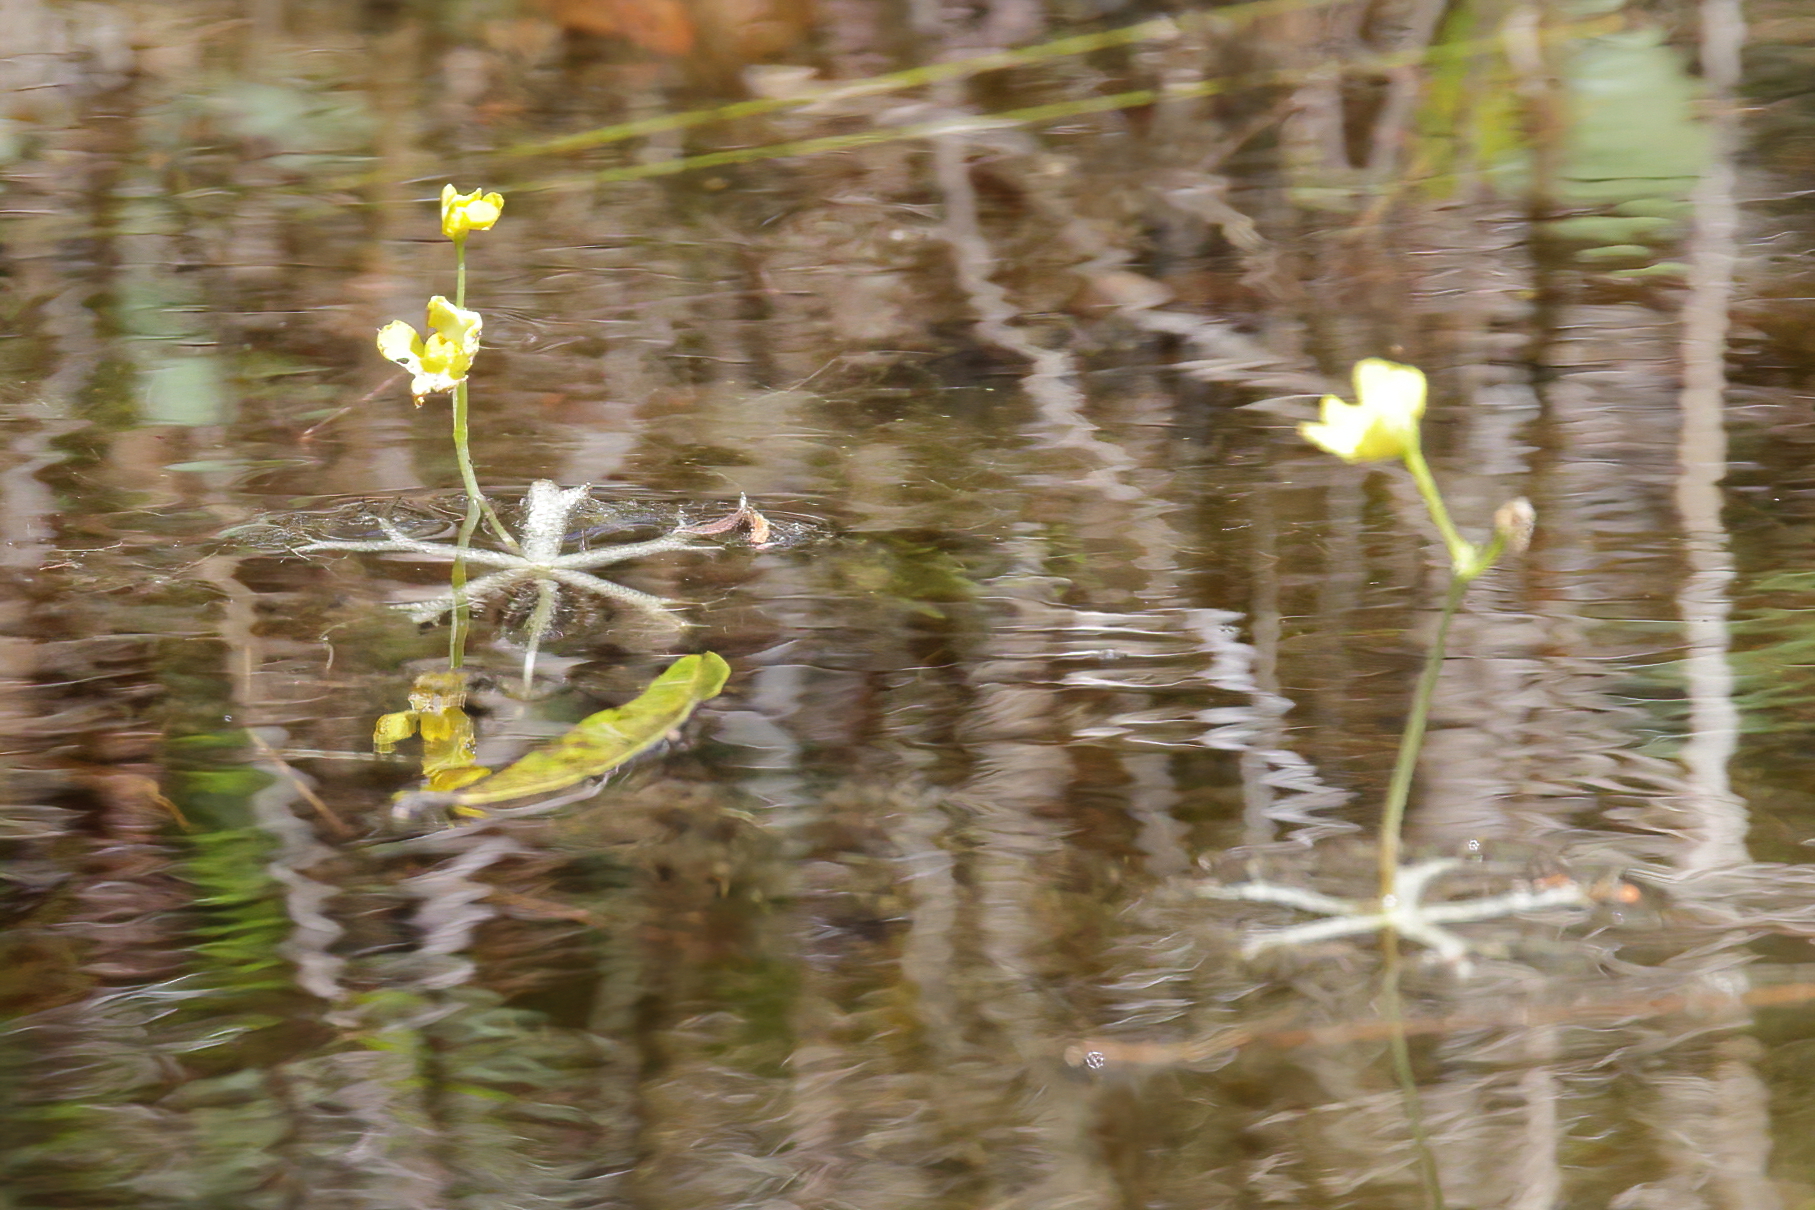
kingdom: Plantae
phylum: Tracheophyta
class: Magnoliopsida
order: Lamiales
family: Lentibulariaceae
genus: Utricularia
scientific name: Utricularia radiata
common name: Floating bladderwort
